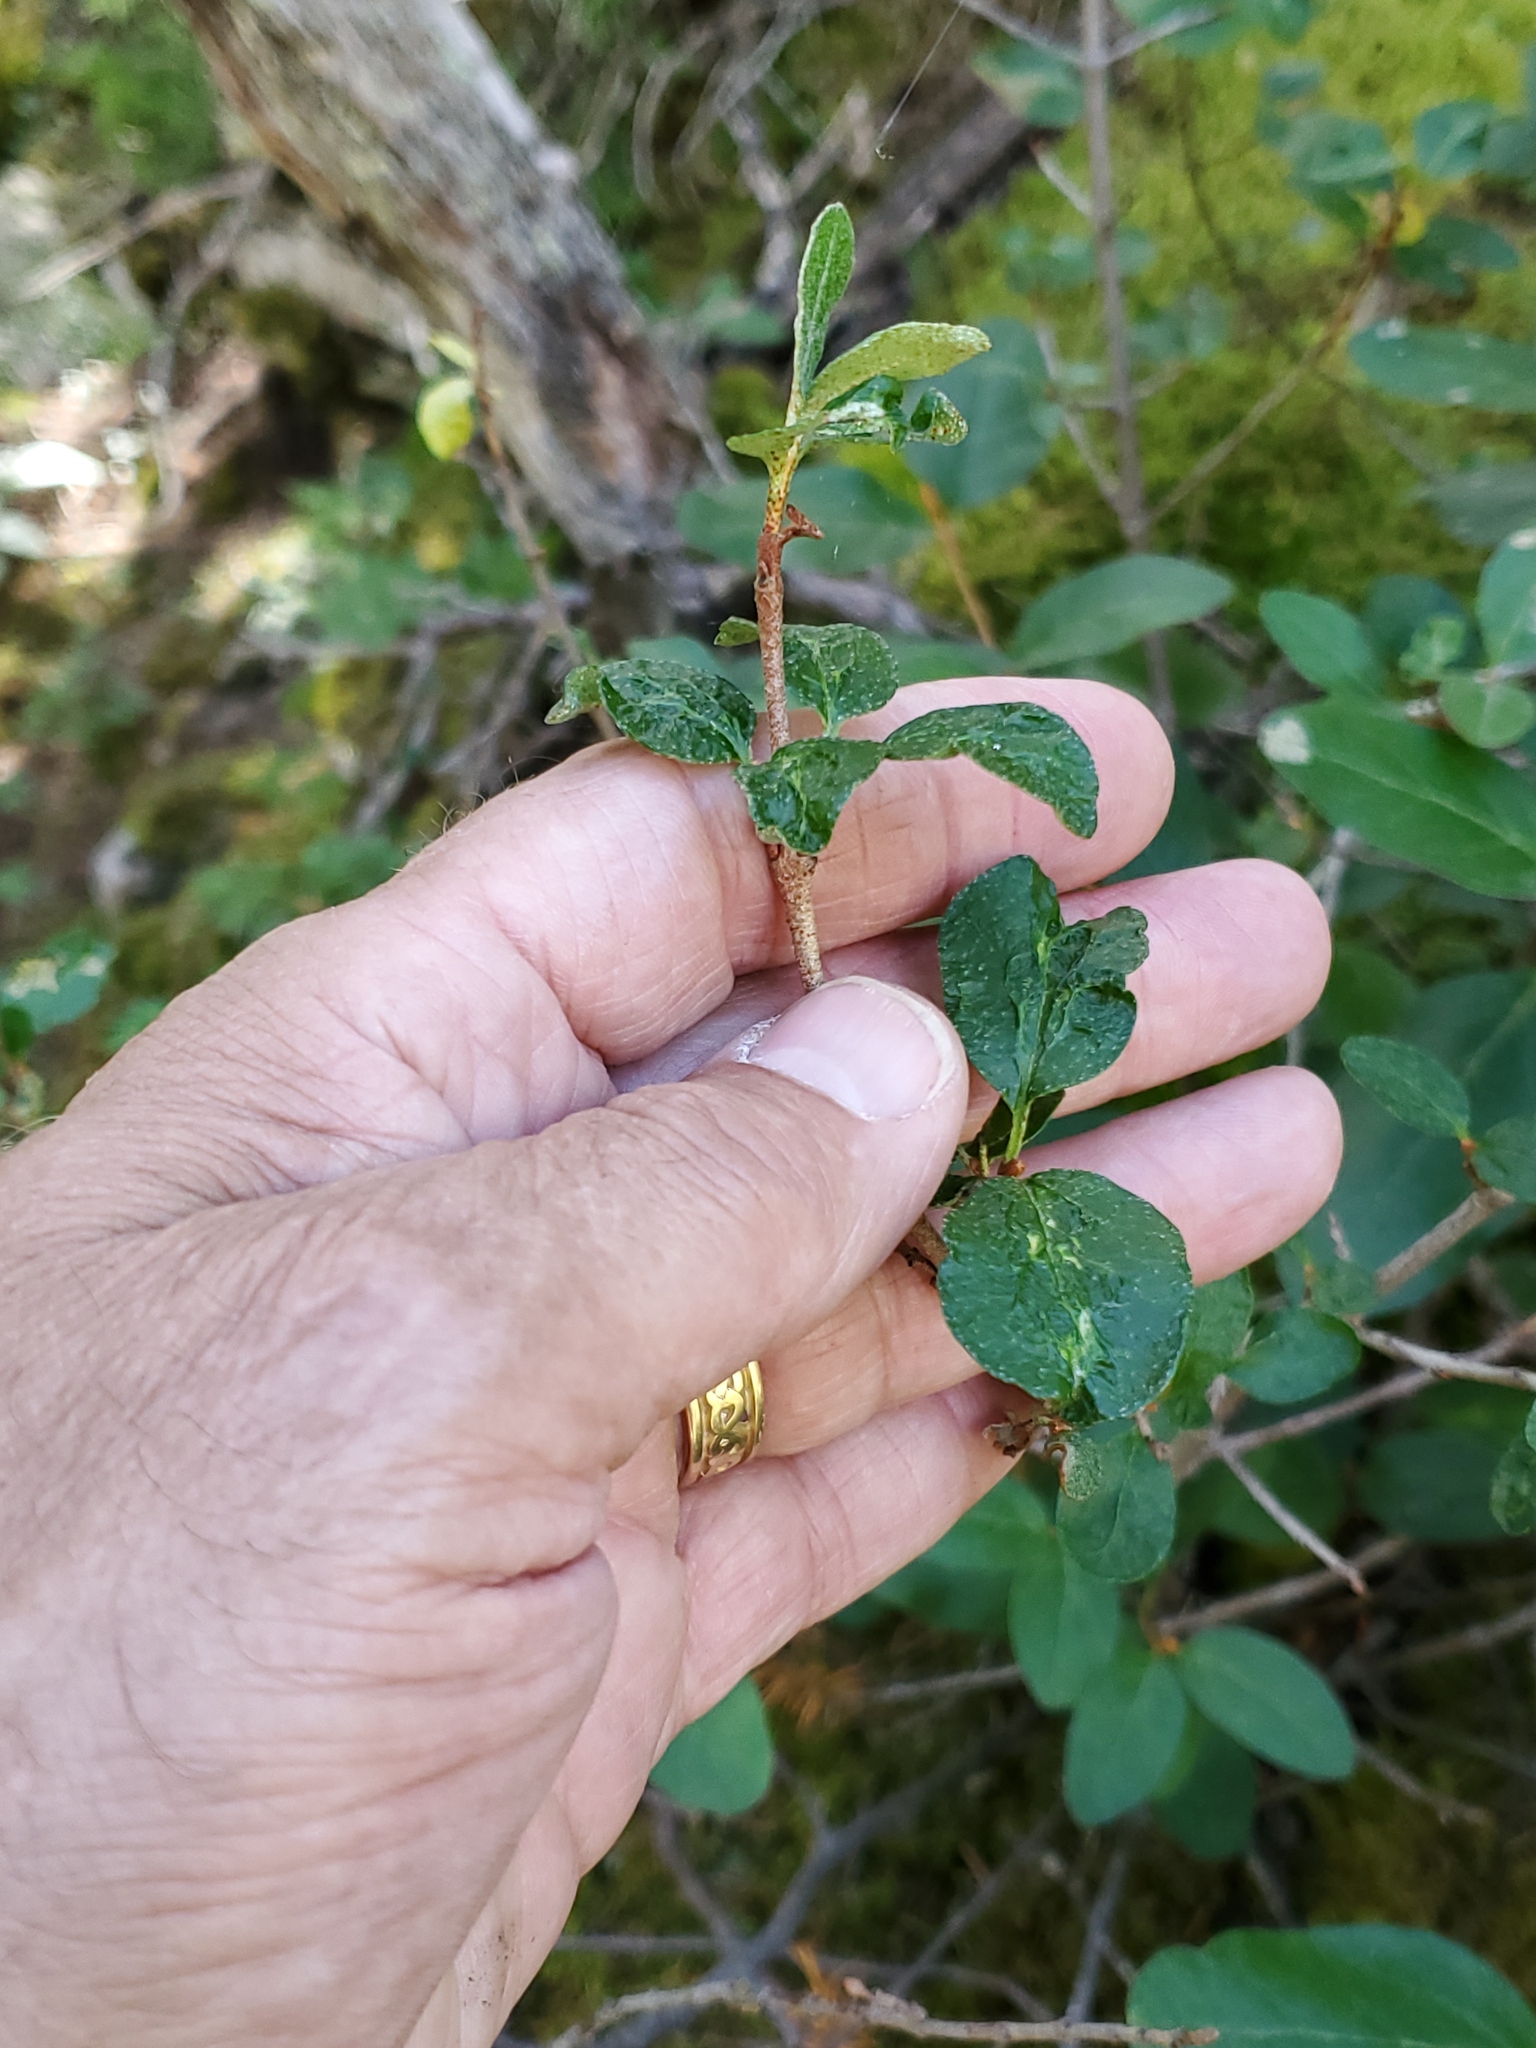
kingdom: Plantae
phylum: Tracheophyta
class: Magnoliopsida
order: Rosales
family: Elaeagnaceae
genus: Shepherdia
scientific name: Shepherdia canadensis
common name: Soapberry
